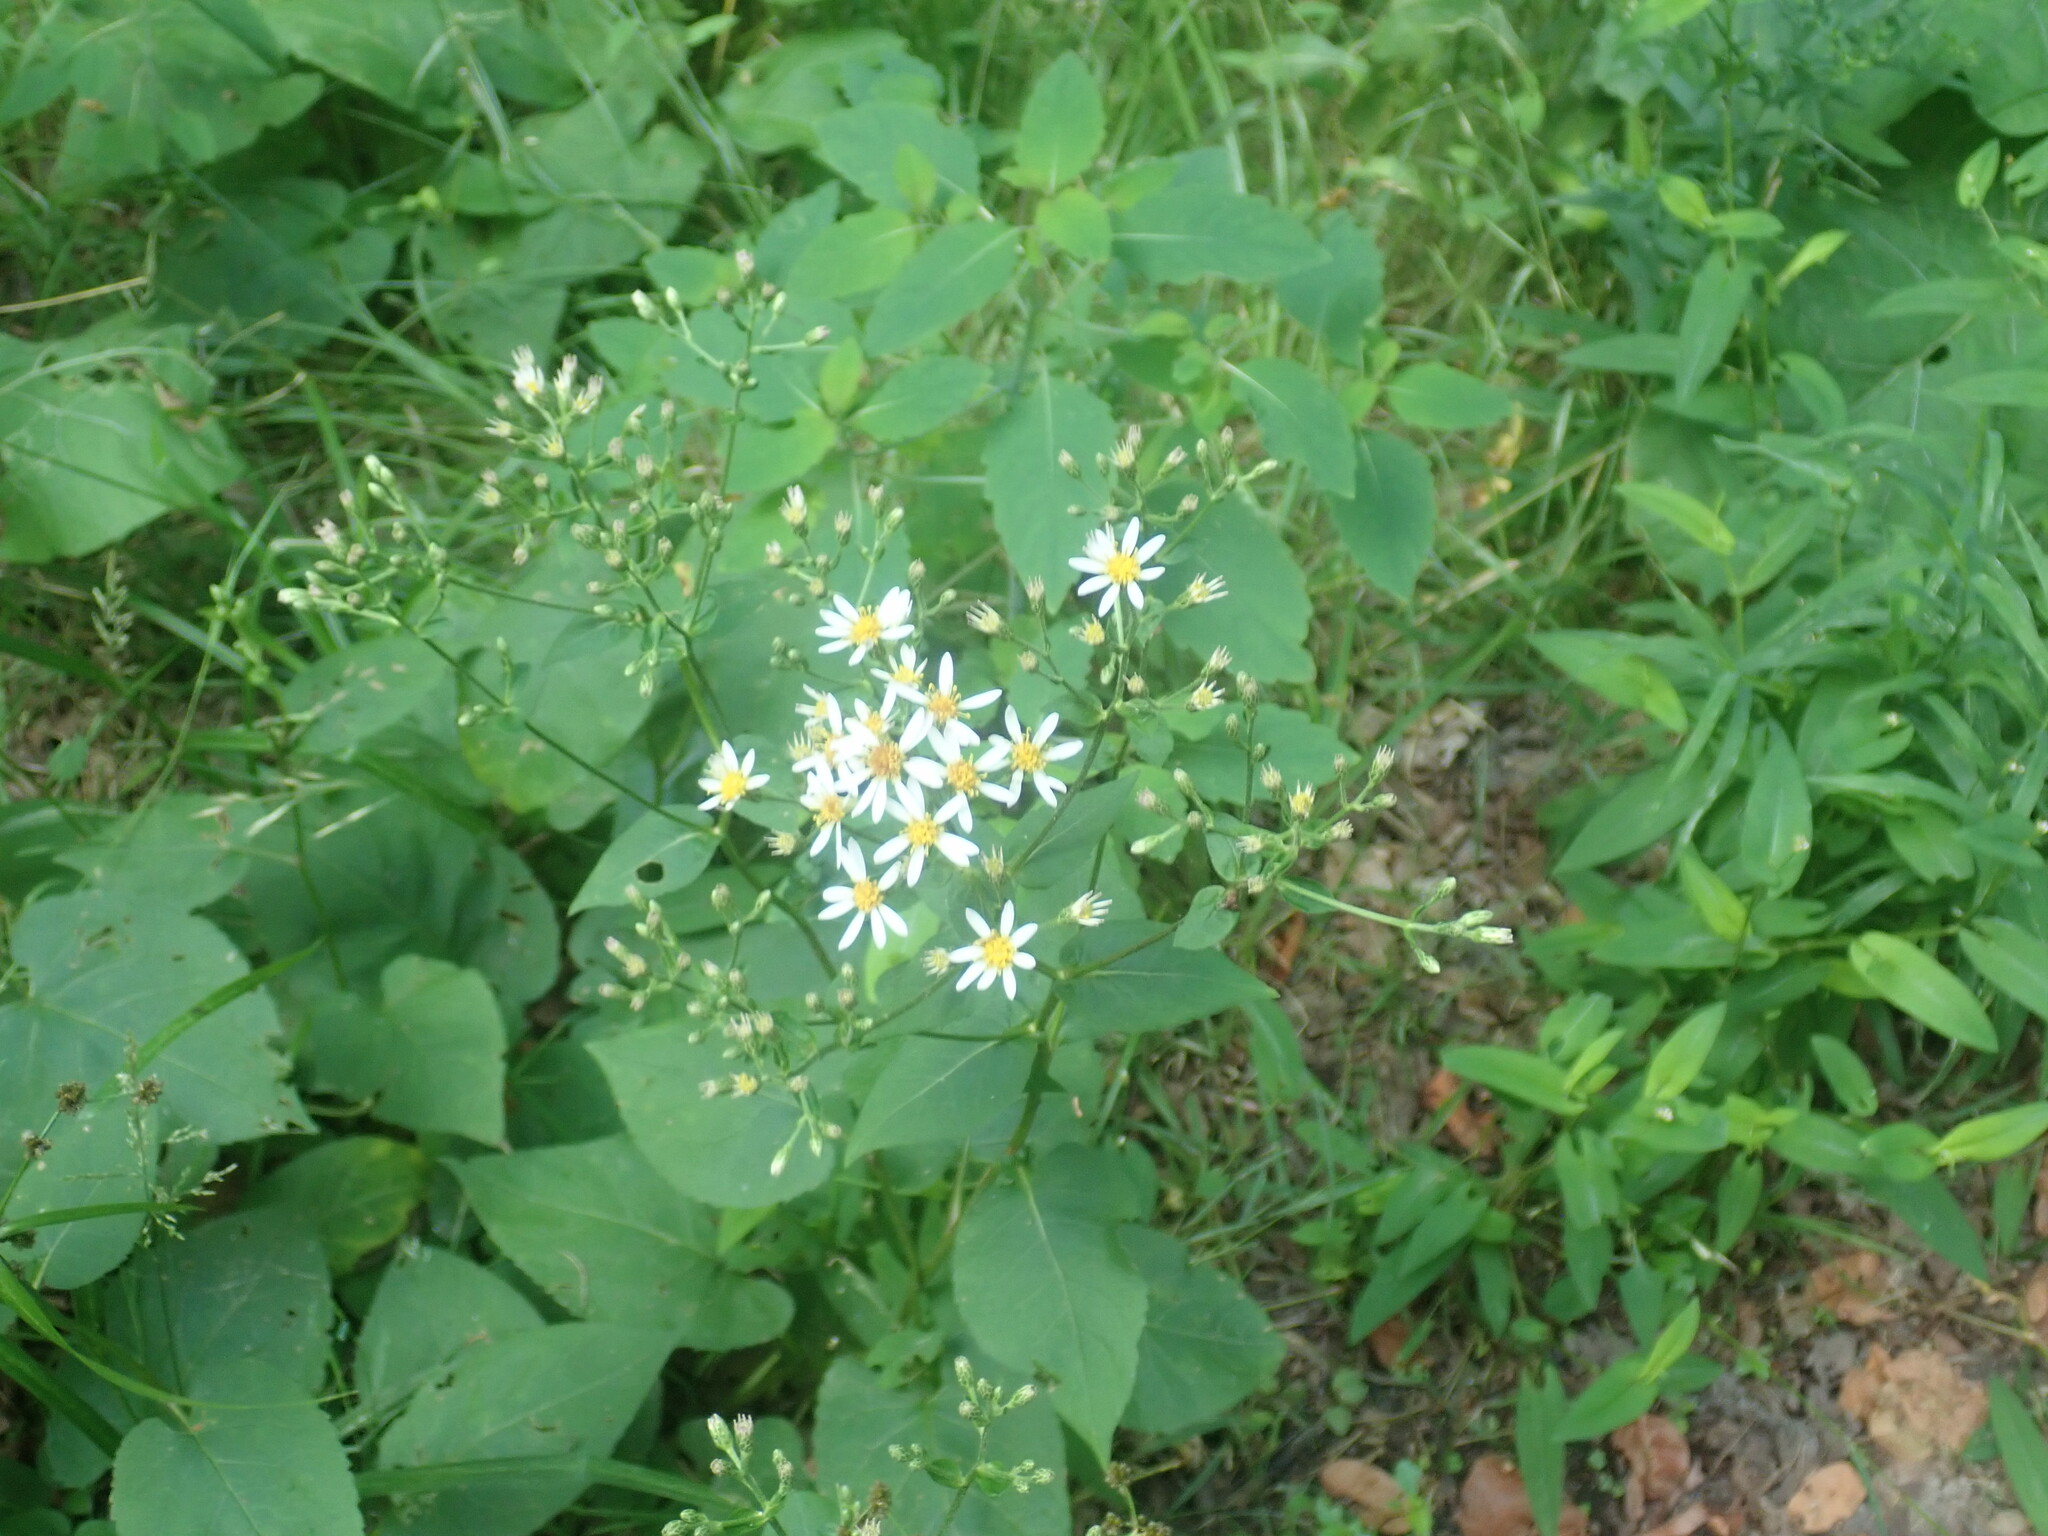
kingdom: Plantae
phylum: Tracheophyta
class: Magnoliopsida
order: Asterales
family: Asteraceae
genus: Eurybia
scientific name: Eurybia macrophylla
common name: Big-leaved aster
